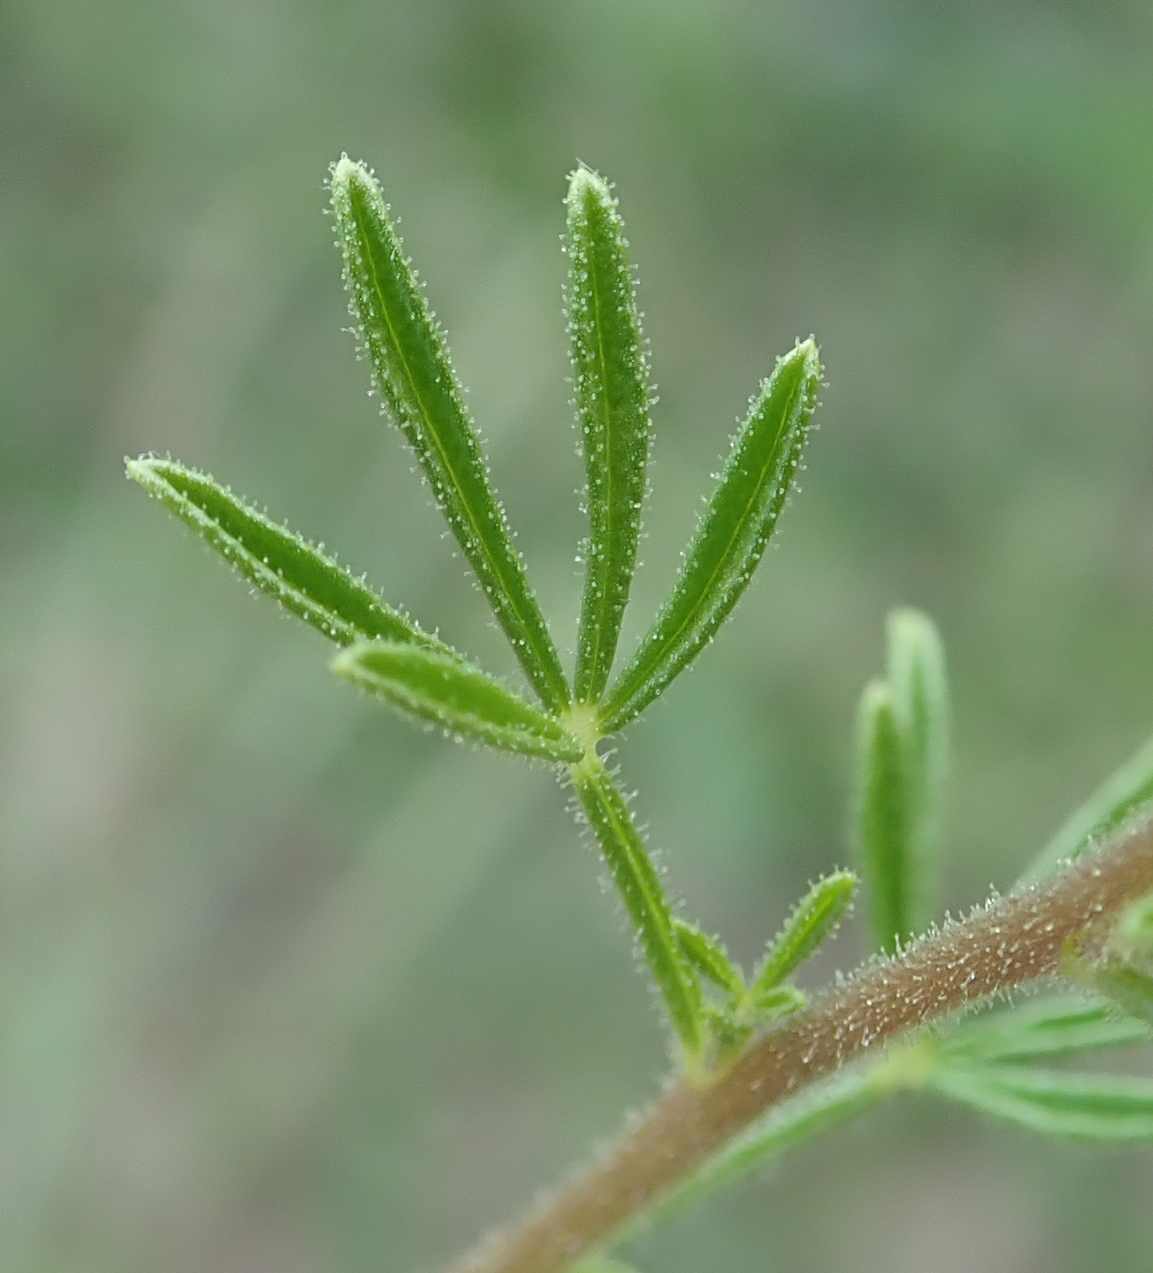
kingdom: Plantae
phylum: Tracheophyta
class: Magnoliopsida
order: Brassicales
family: Cleomaceae
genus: Sieruela
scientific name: Sieruela rubella
